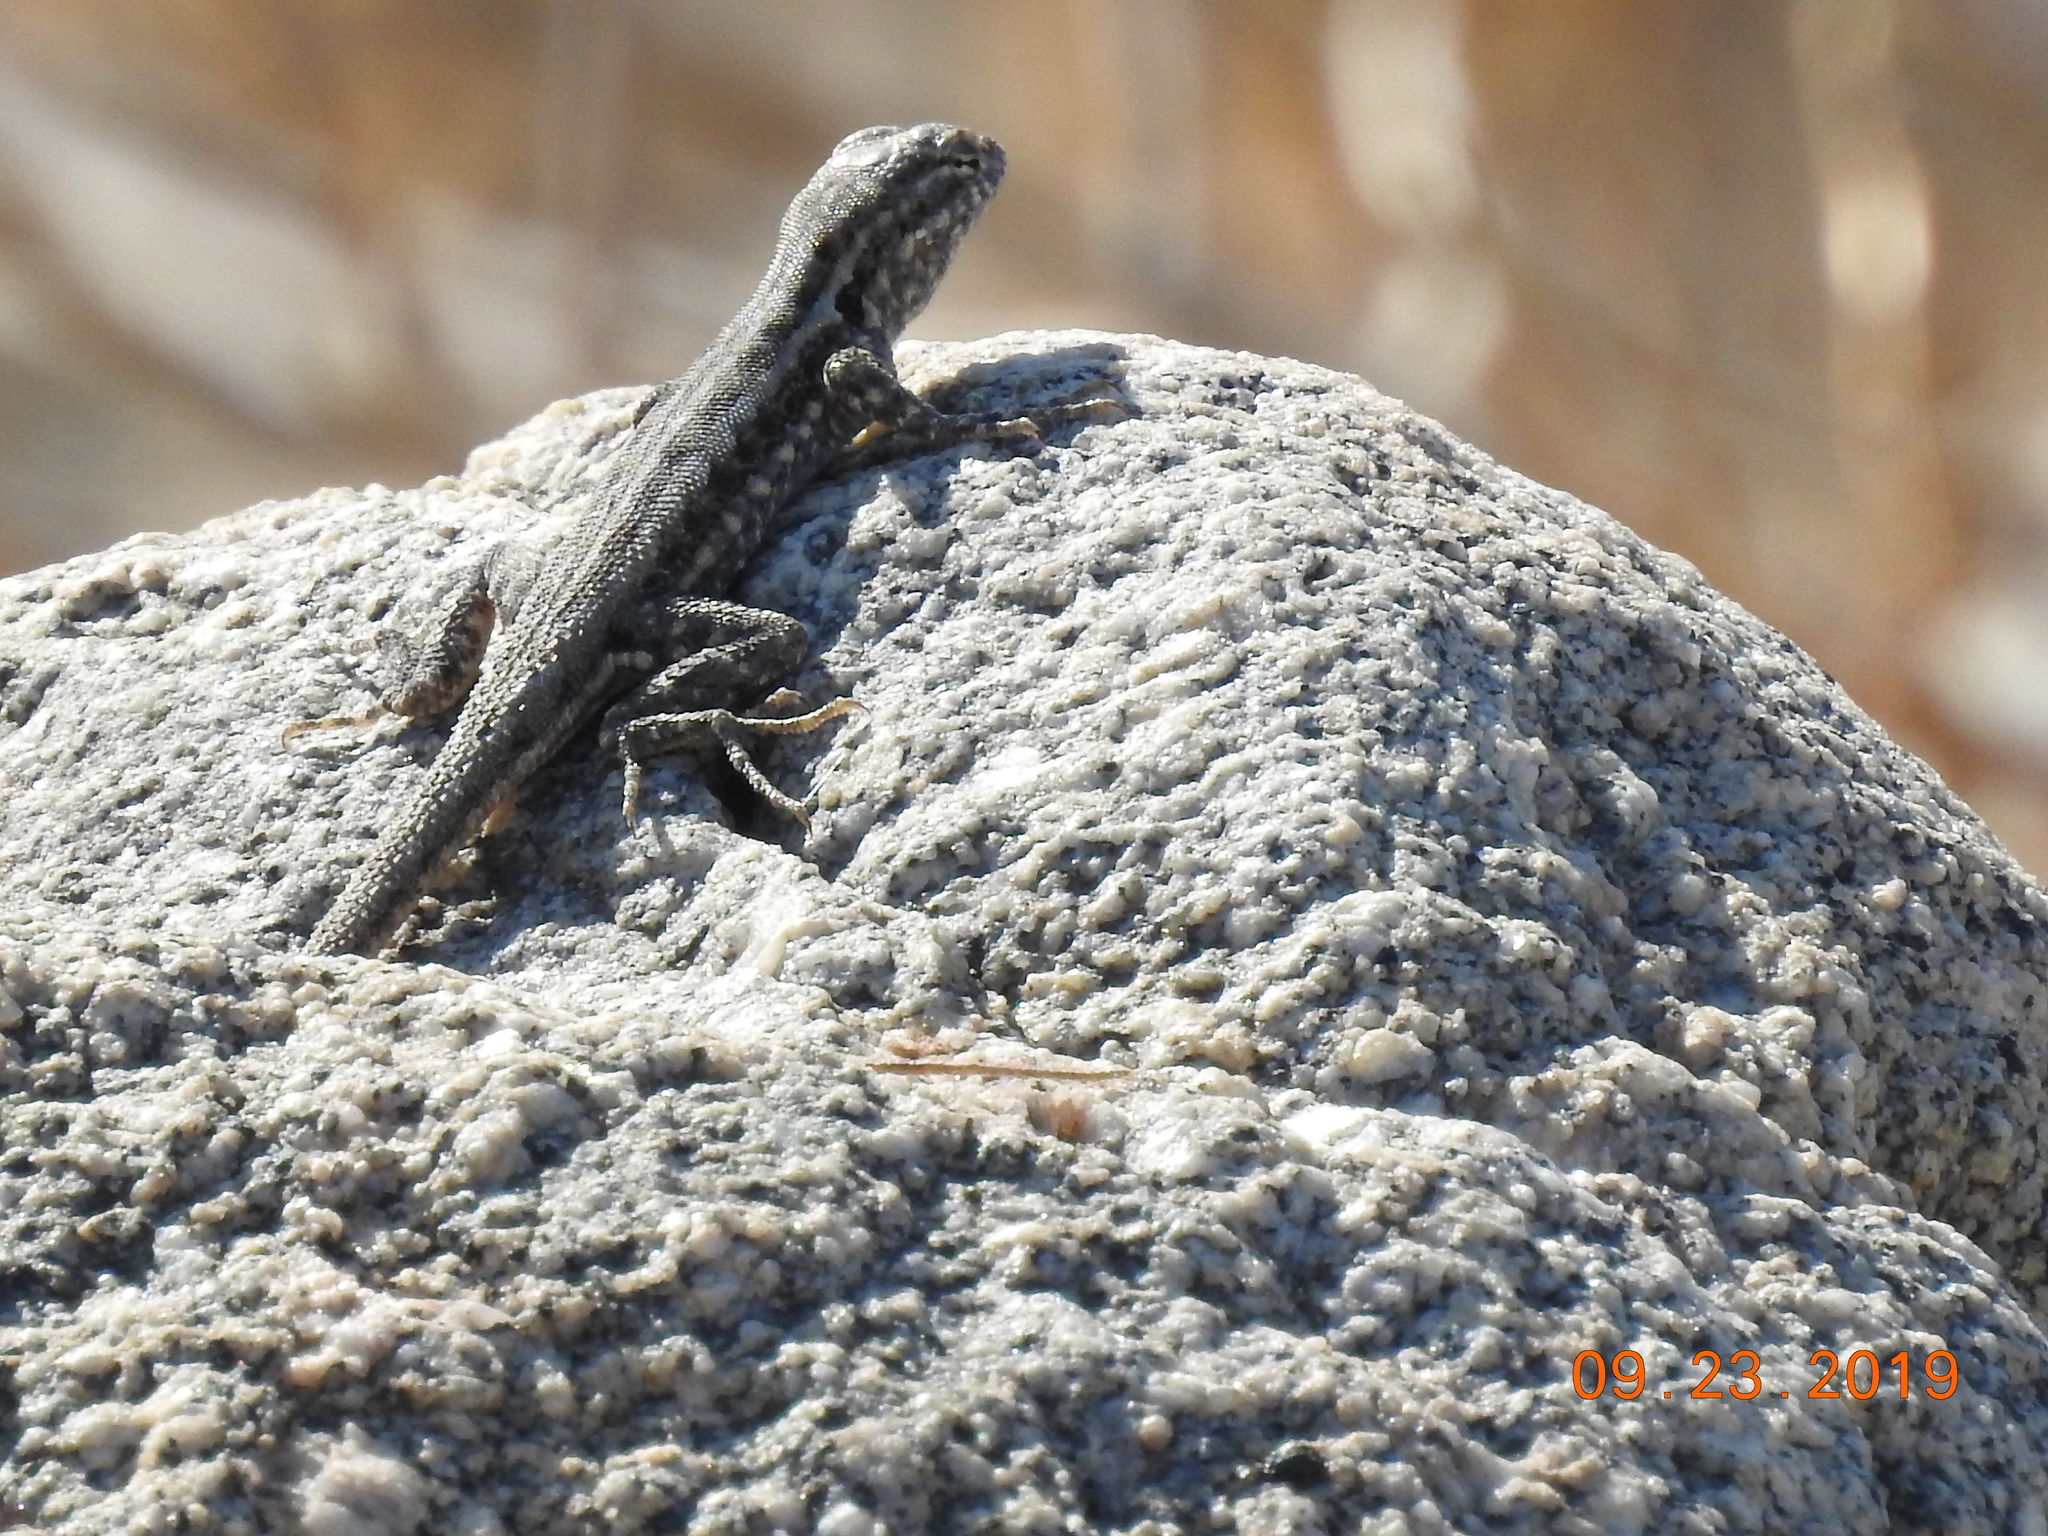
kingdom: Animalia
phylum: Chordata
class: Squamata
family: Phrynosomatidae
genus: Uta
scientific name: Uta stansburiana
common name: Side-blotched lizard
